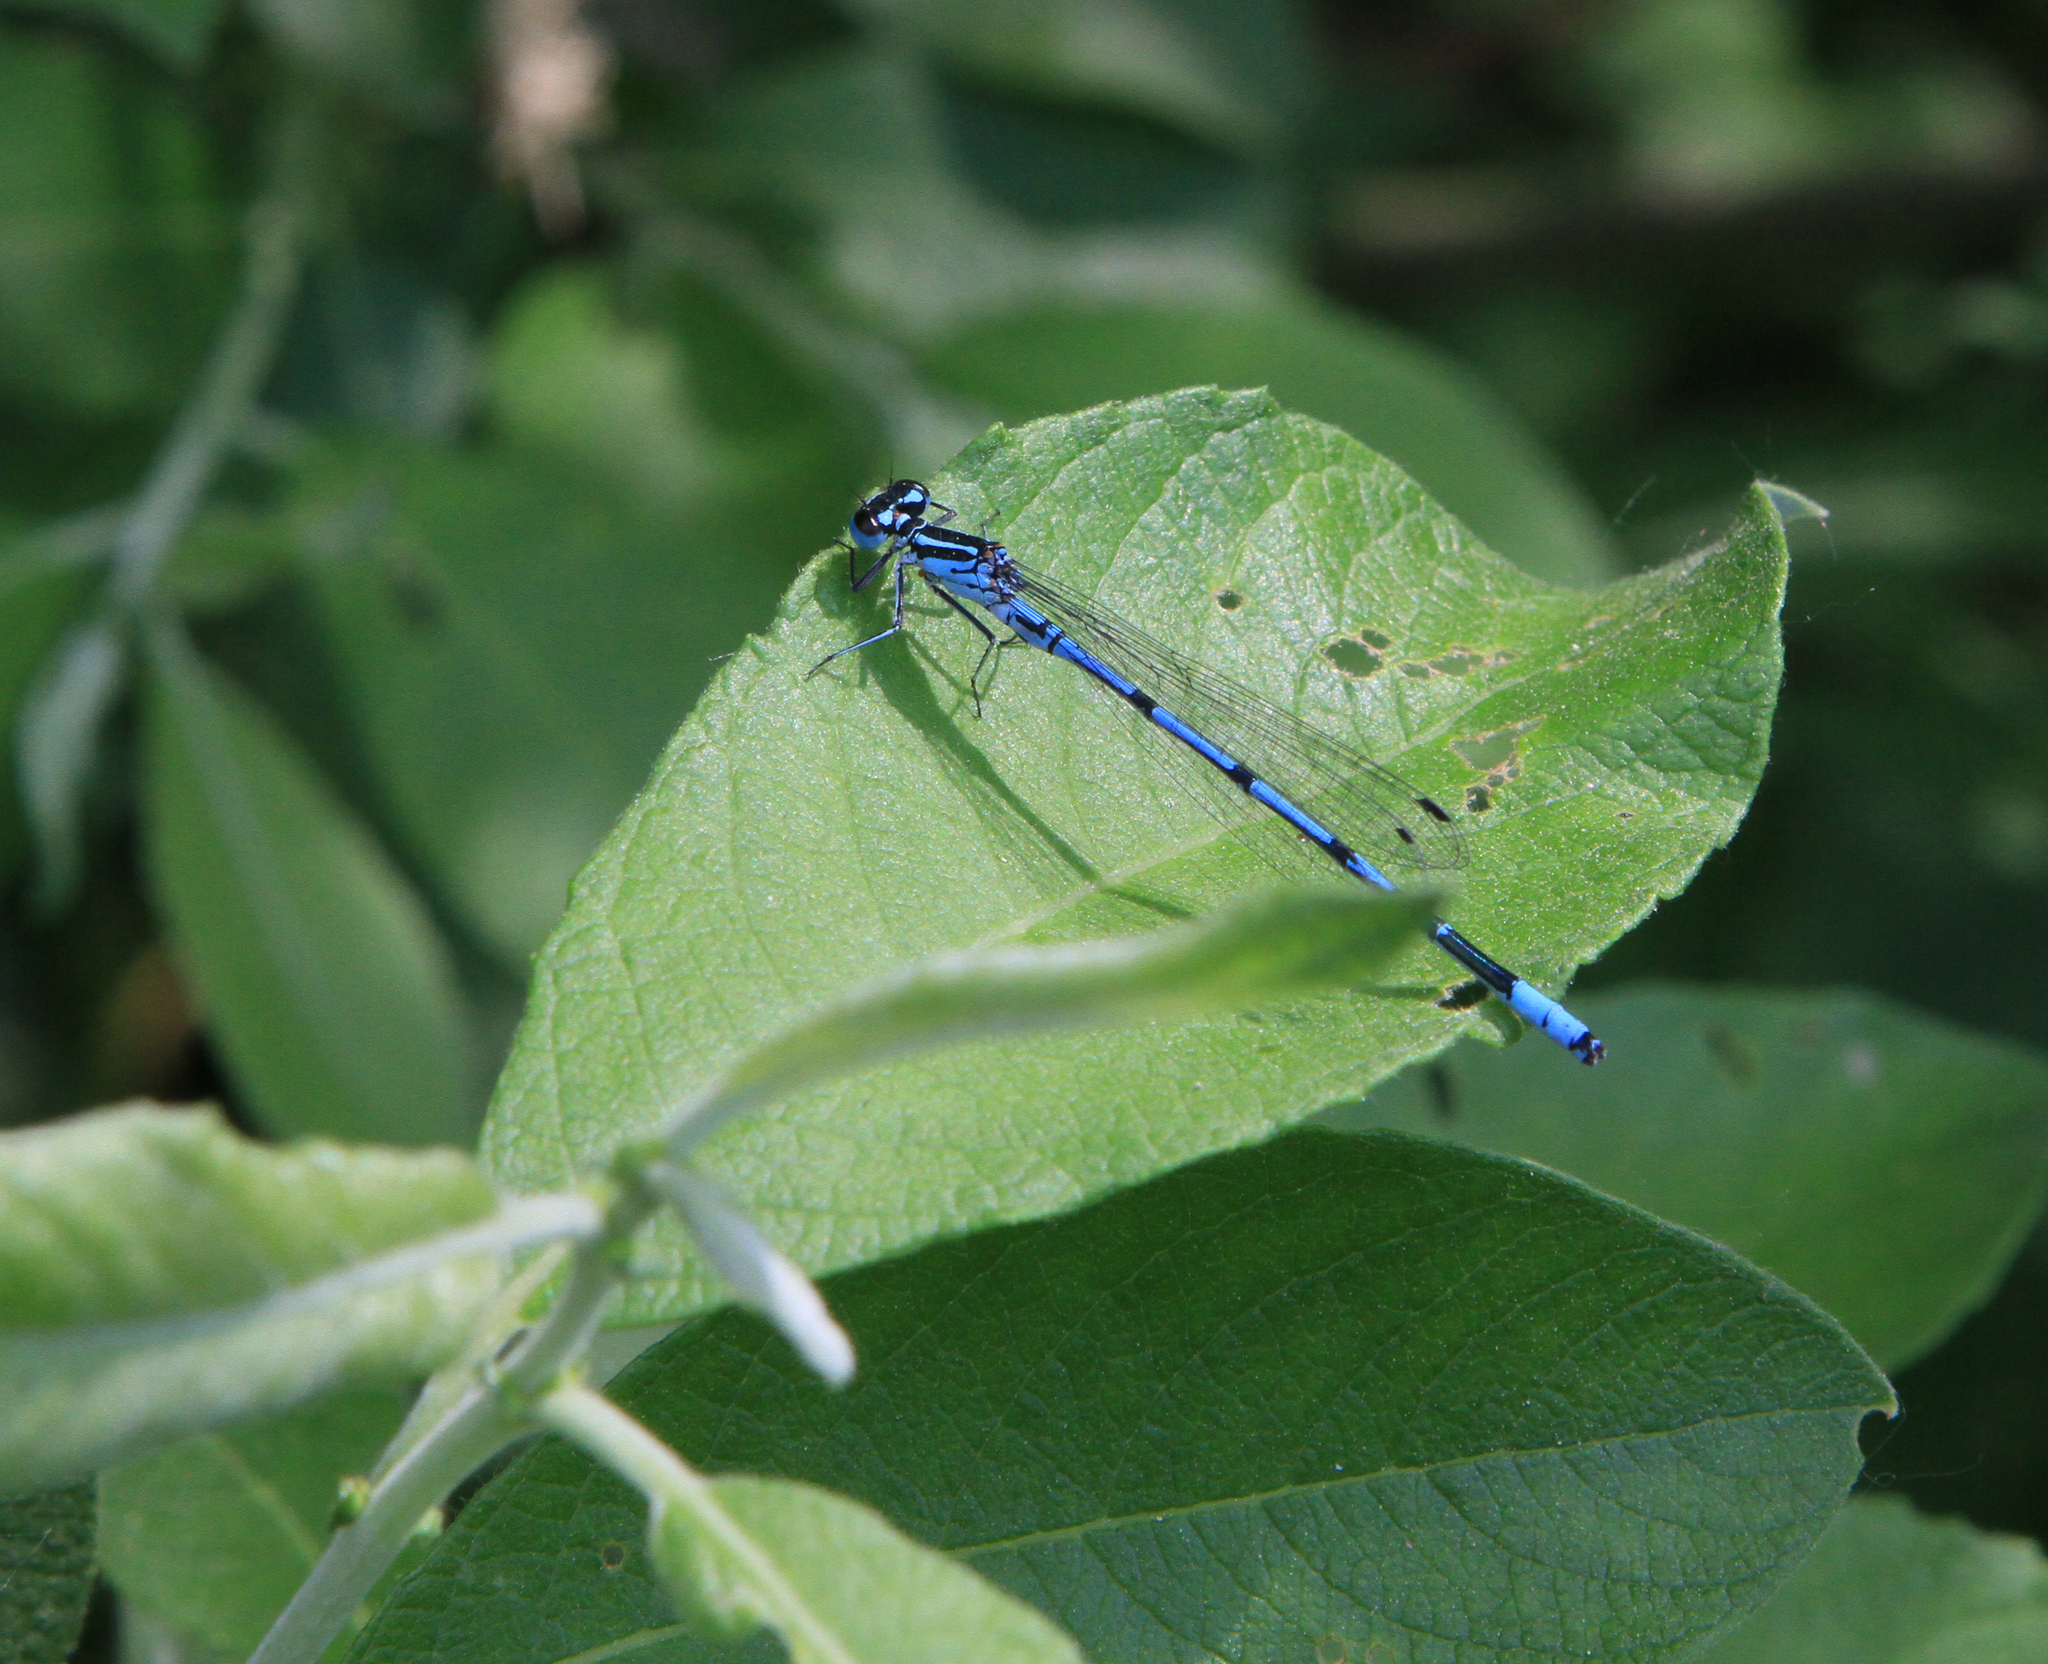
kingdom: Plantae
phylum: Tracheophyta
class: Magnoliopsida
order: Malpighiales
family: Salicaceae
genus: Salix
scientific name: Salix caprea
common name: Goat willow
